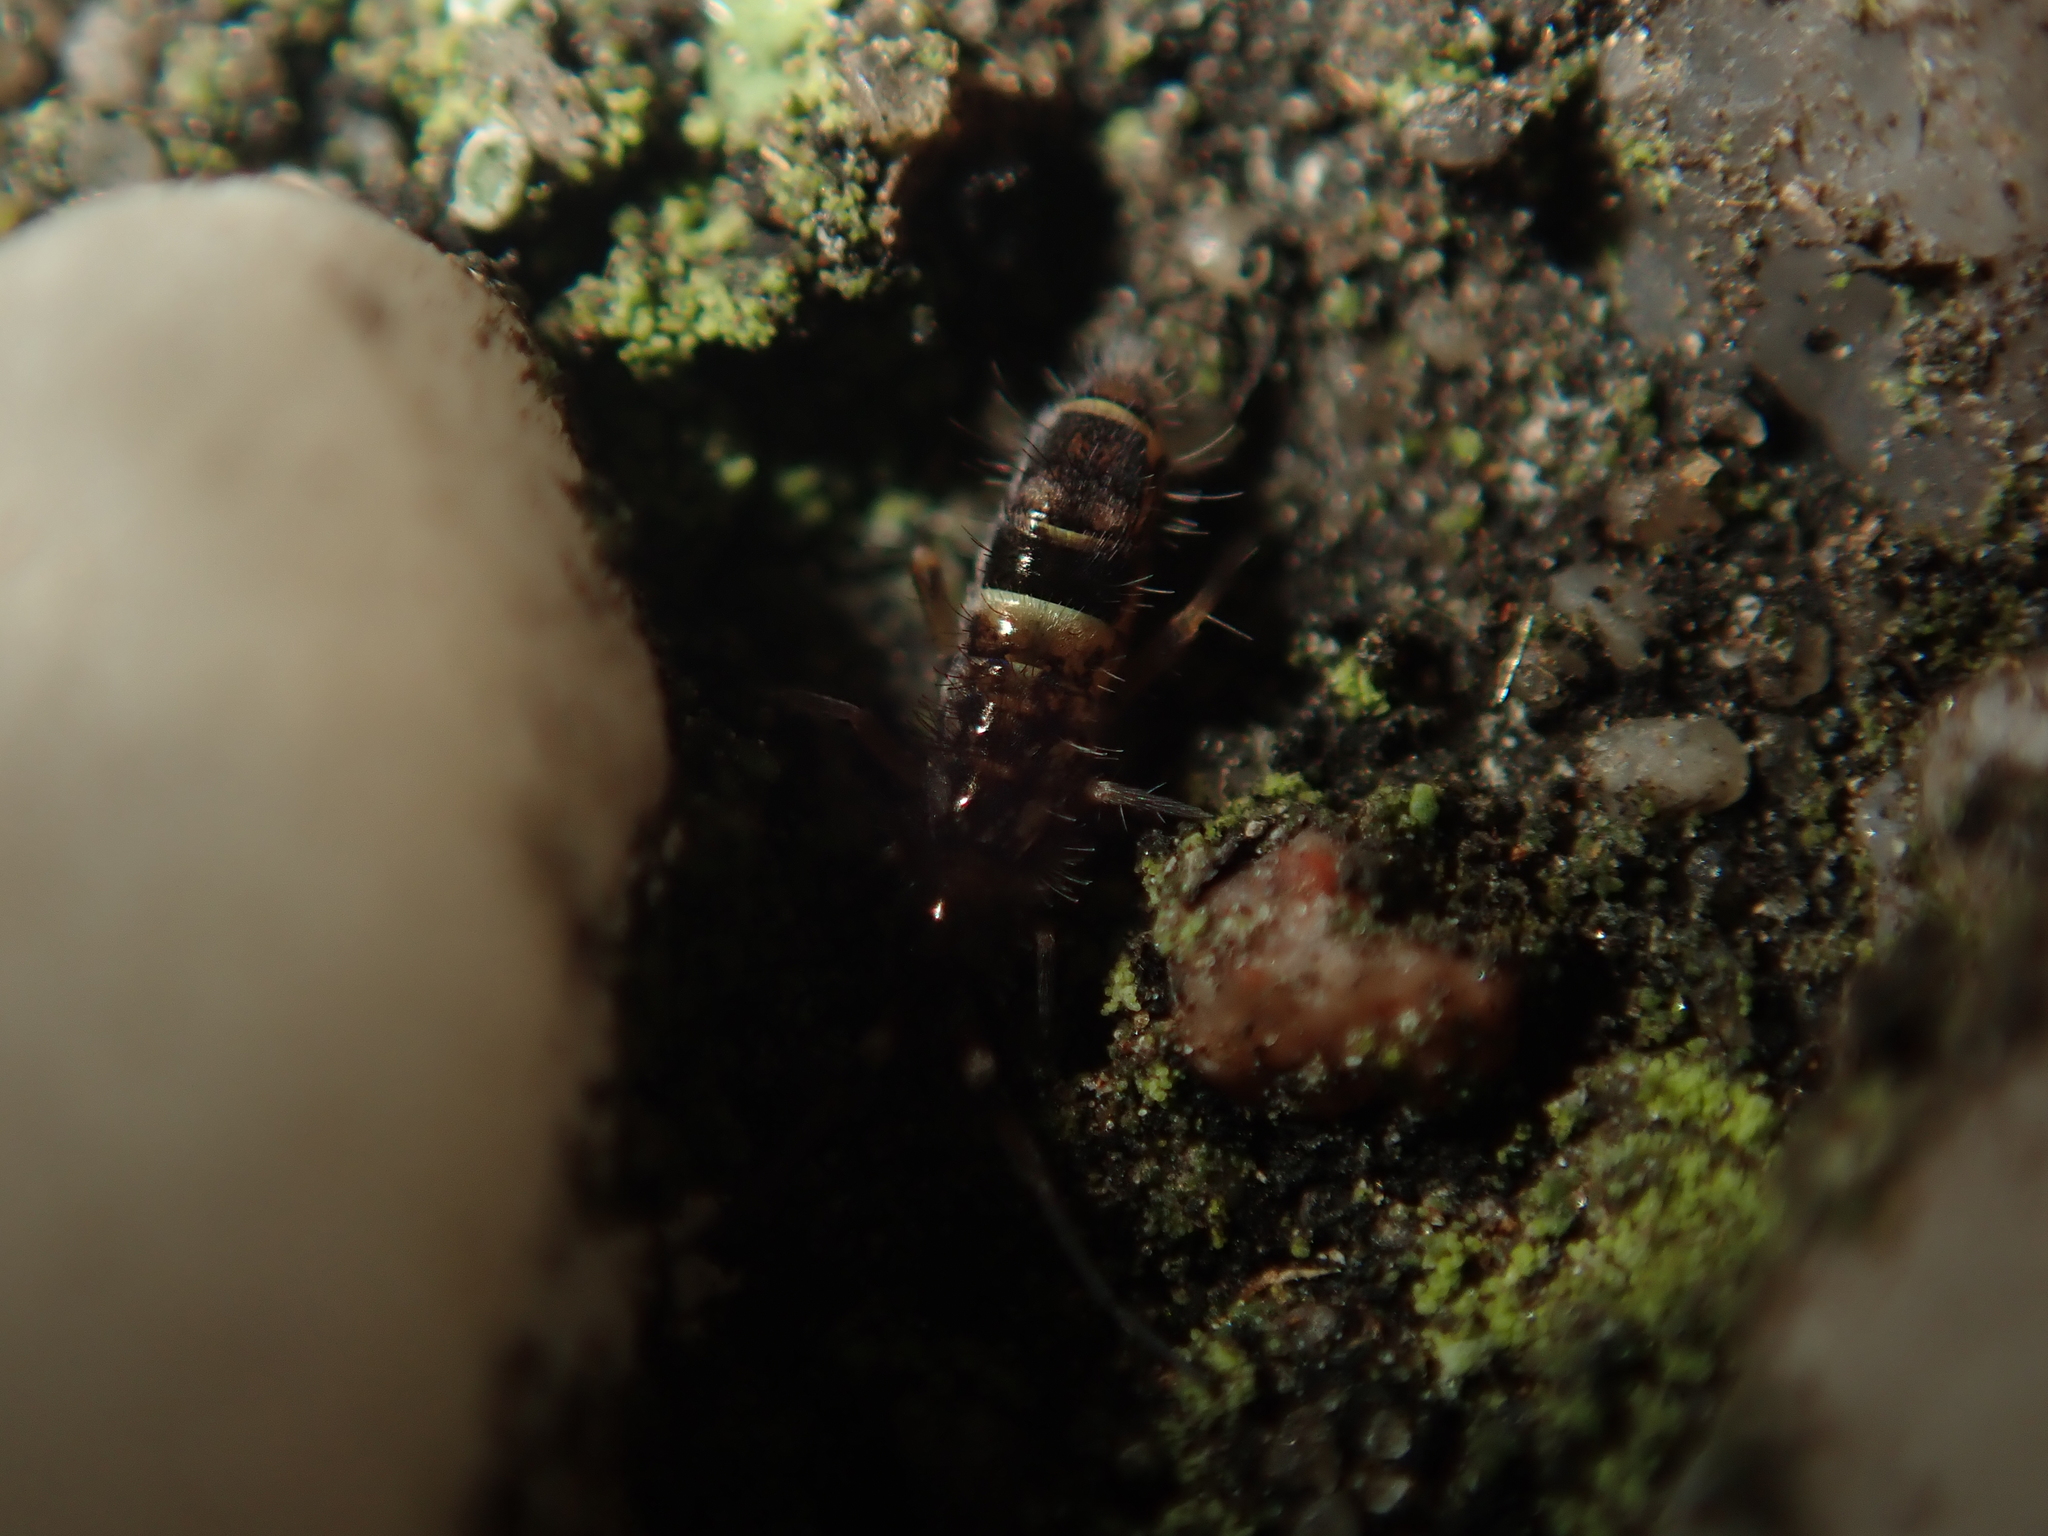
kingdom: Animalia
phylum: Arthropoda
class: Collembola
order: Entomobryomorpha
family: Orchesellidae
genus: Orchesella
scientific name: Orchesella cincta
